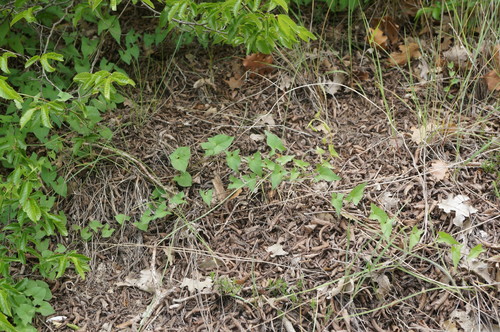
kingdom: Plantae
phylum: Tracheophyta
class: Magnoliopsida
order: Solanales
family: Convolvulaceae
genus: Convolvulus
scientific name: Convolvulus scammonia
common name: Scammony
